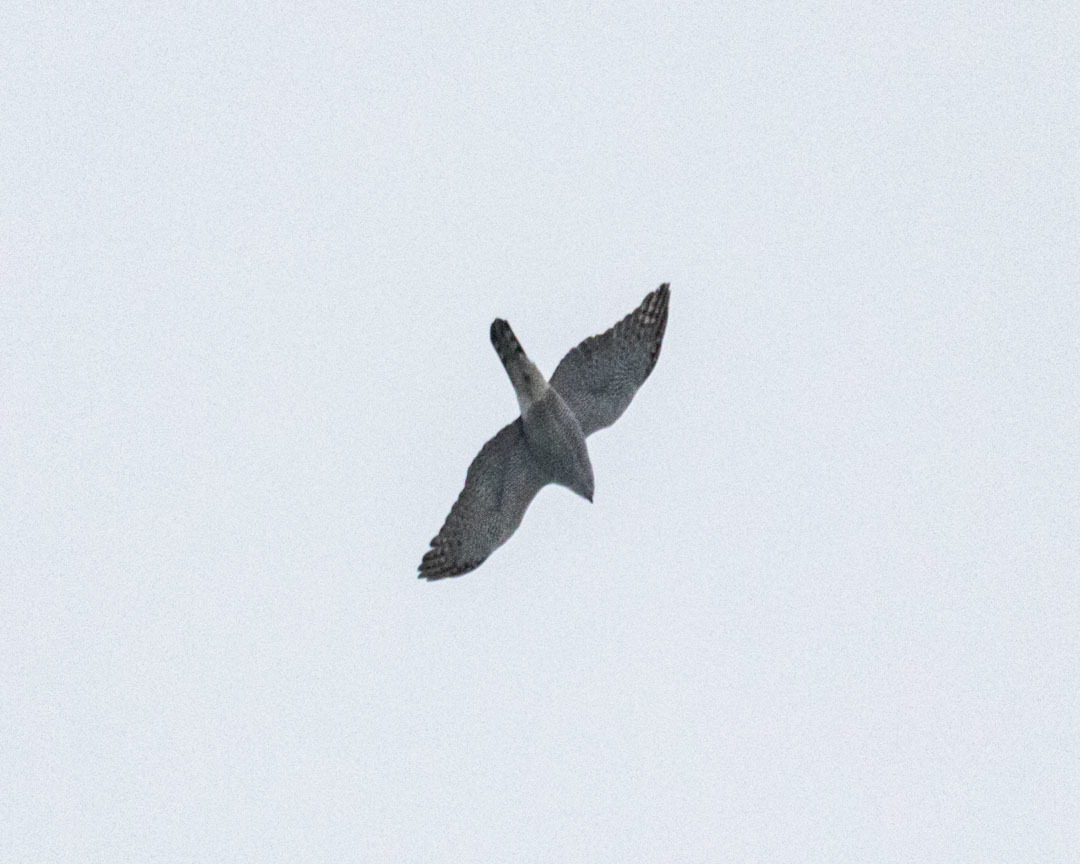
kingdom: Animalia
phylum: Chordata
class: Aves
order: Accipitriformes
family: Accipitridae
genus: Accipiter
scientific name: Accipiter gentilis
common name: Northern goshawk
